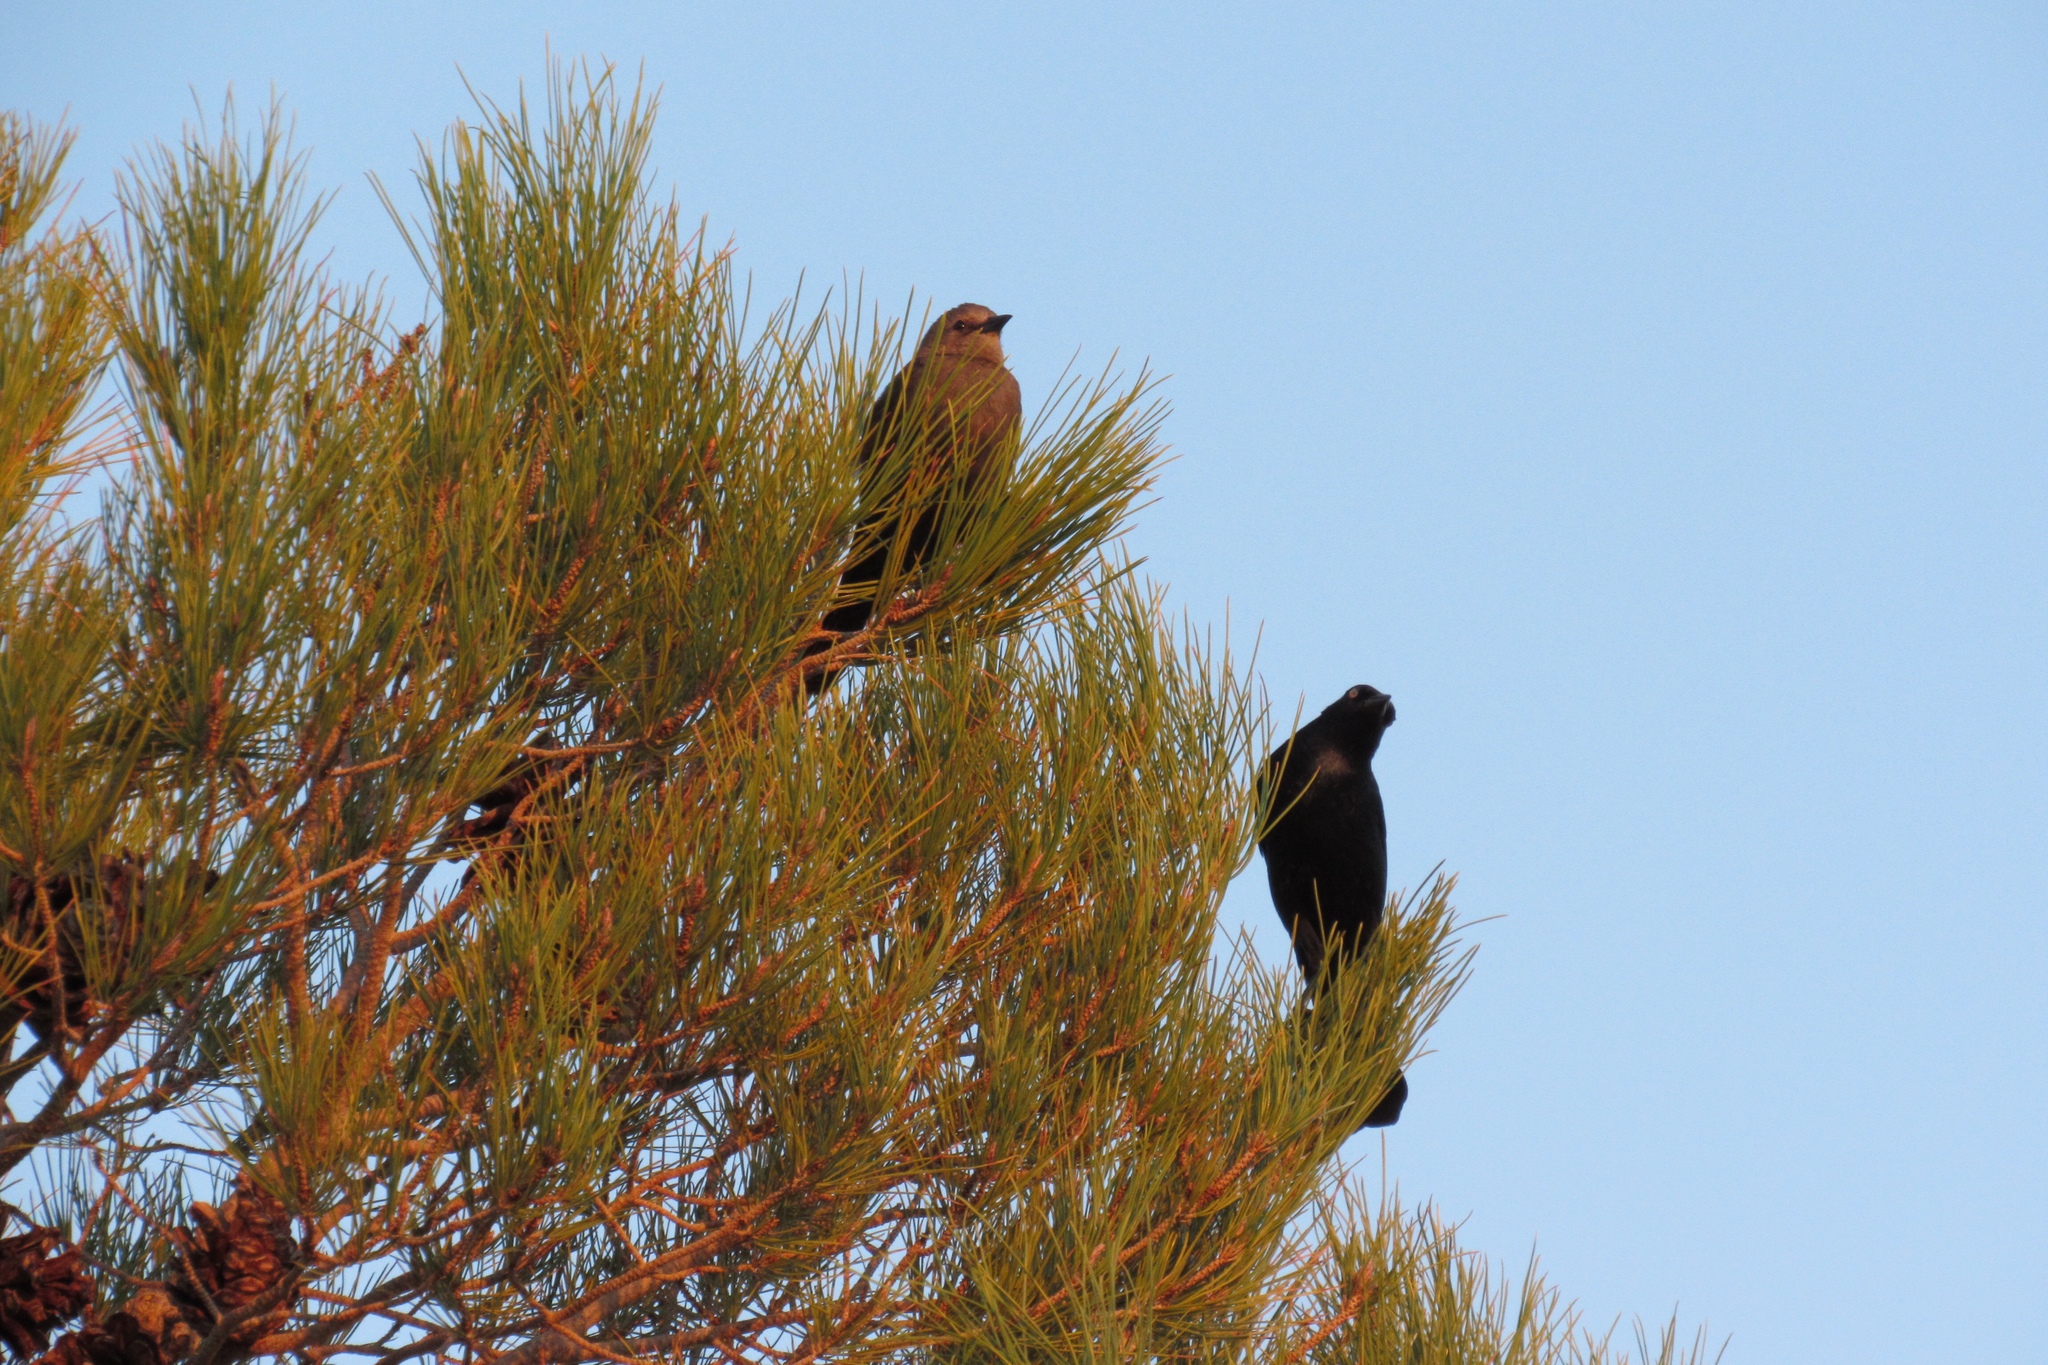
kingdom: Animalia
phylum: Chordata
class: Aves
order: Passeriformes
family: Icteridae
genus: Euphagus
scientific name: Euphagus cyanocephalus
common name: Brewer's blackbird
